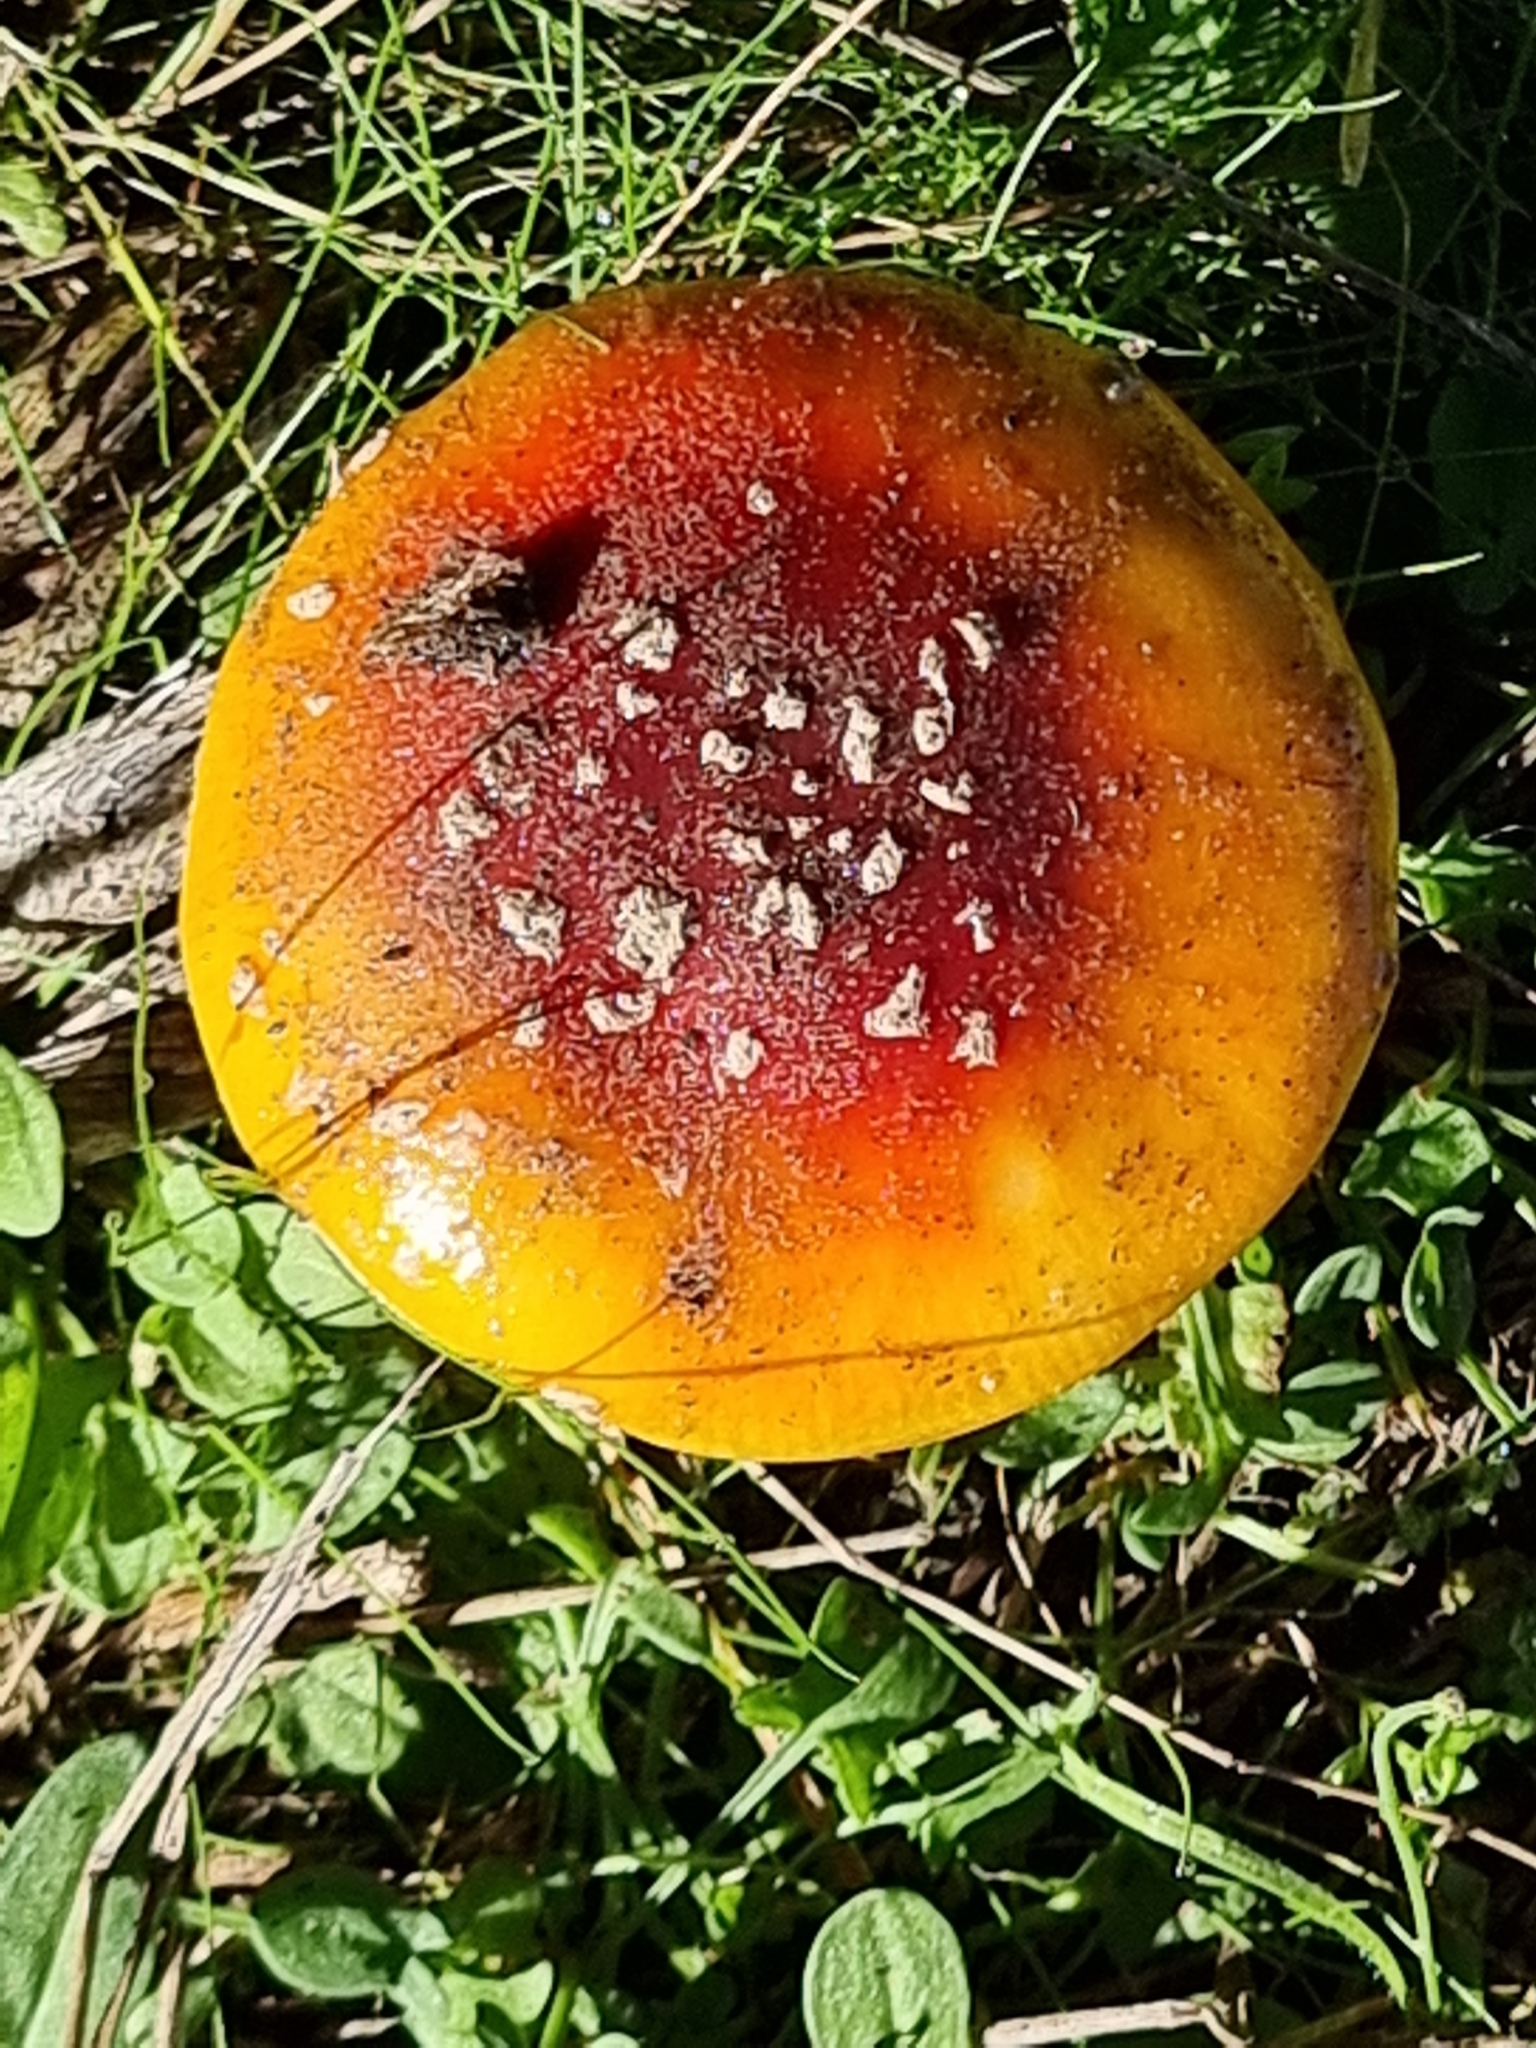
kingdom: Fungi
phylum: Basidiomycota
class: Agaricomycetes
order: Agaricales
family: Amanitaceae
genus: Amanita
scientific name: Amanita muscaria
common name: Fly agaric
